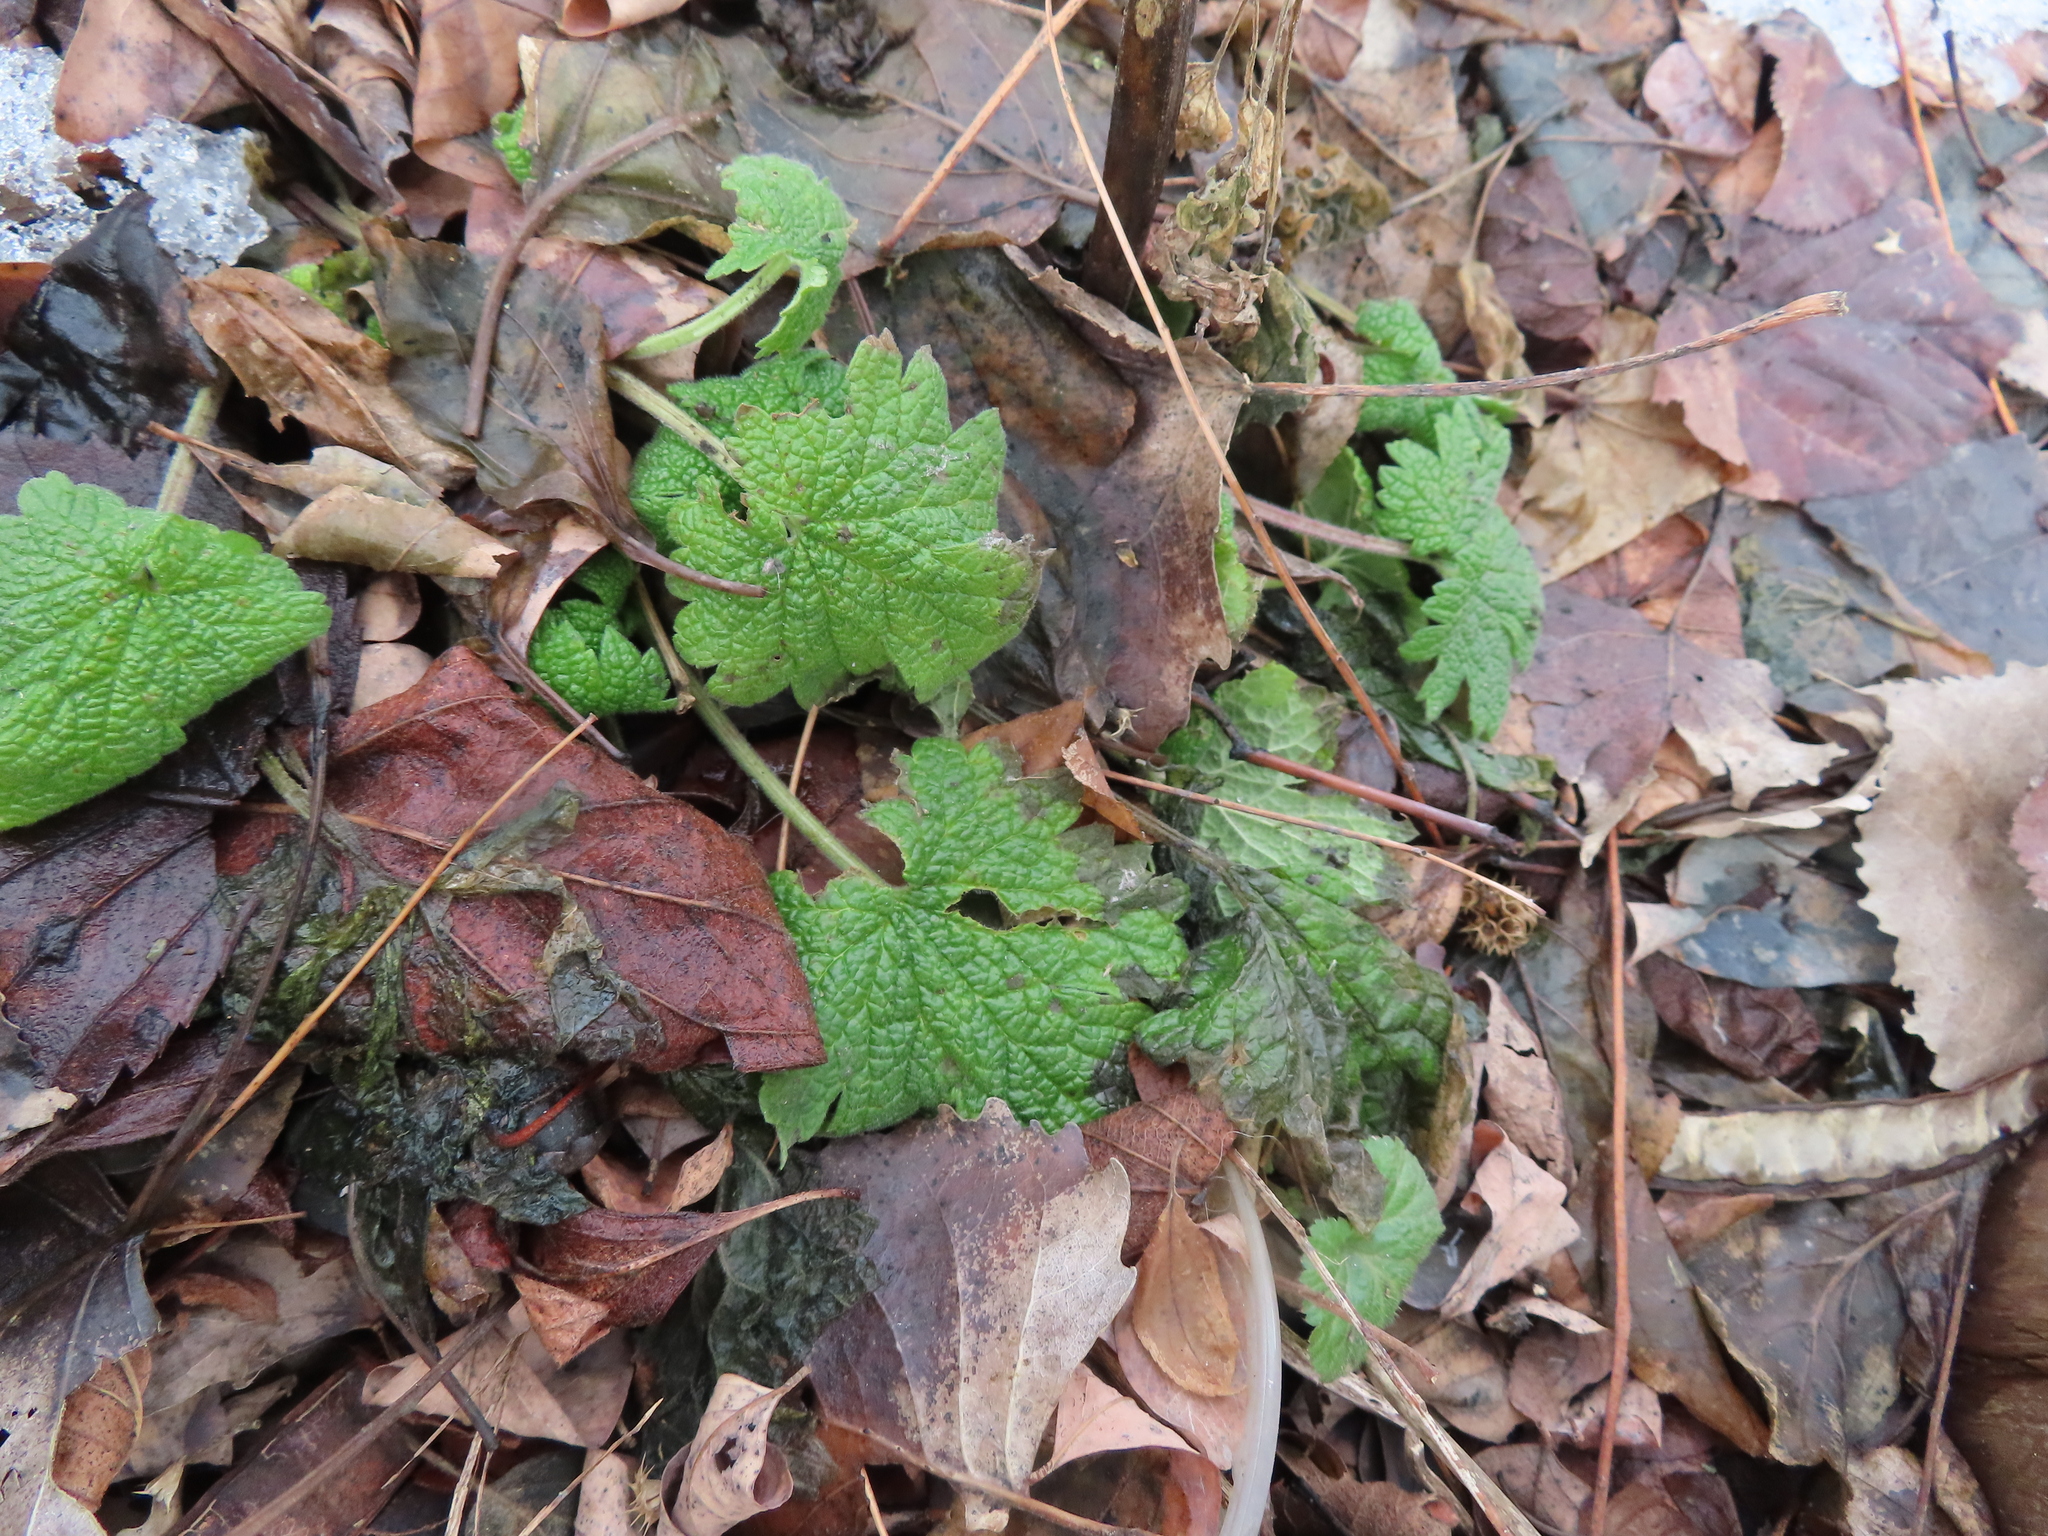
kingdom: Plantae
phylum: Tracheophyta
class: Magnoliopsida
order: Lamiales
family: Lamiaceae
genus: Leonurus
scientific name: Leonurus cardiaca
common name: Motherwort
